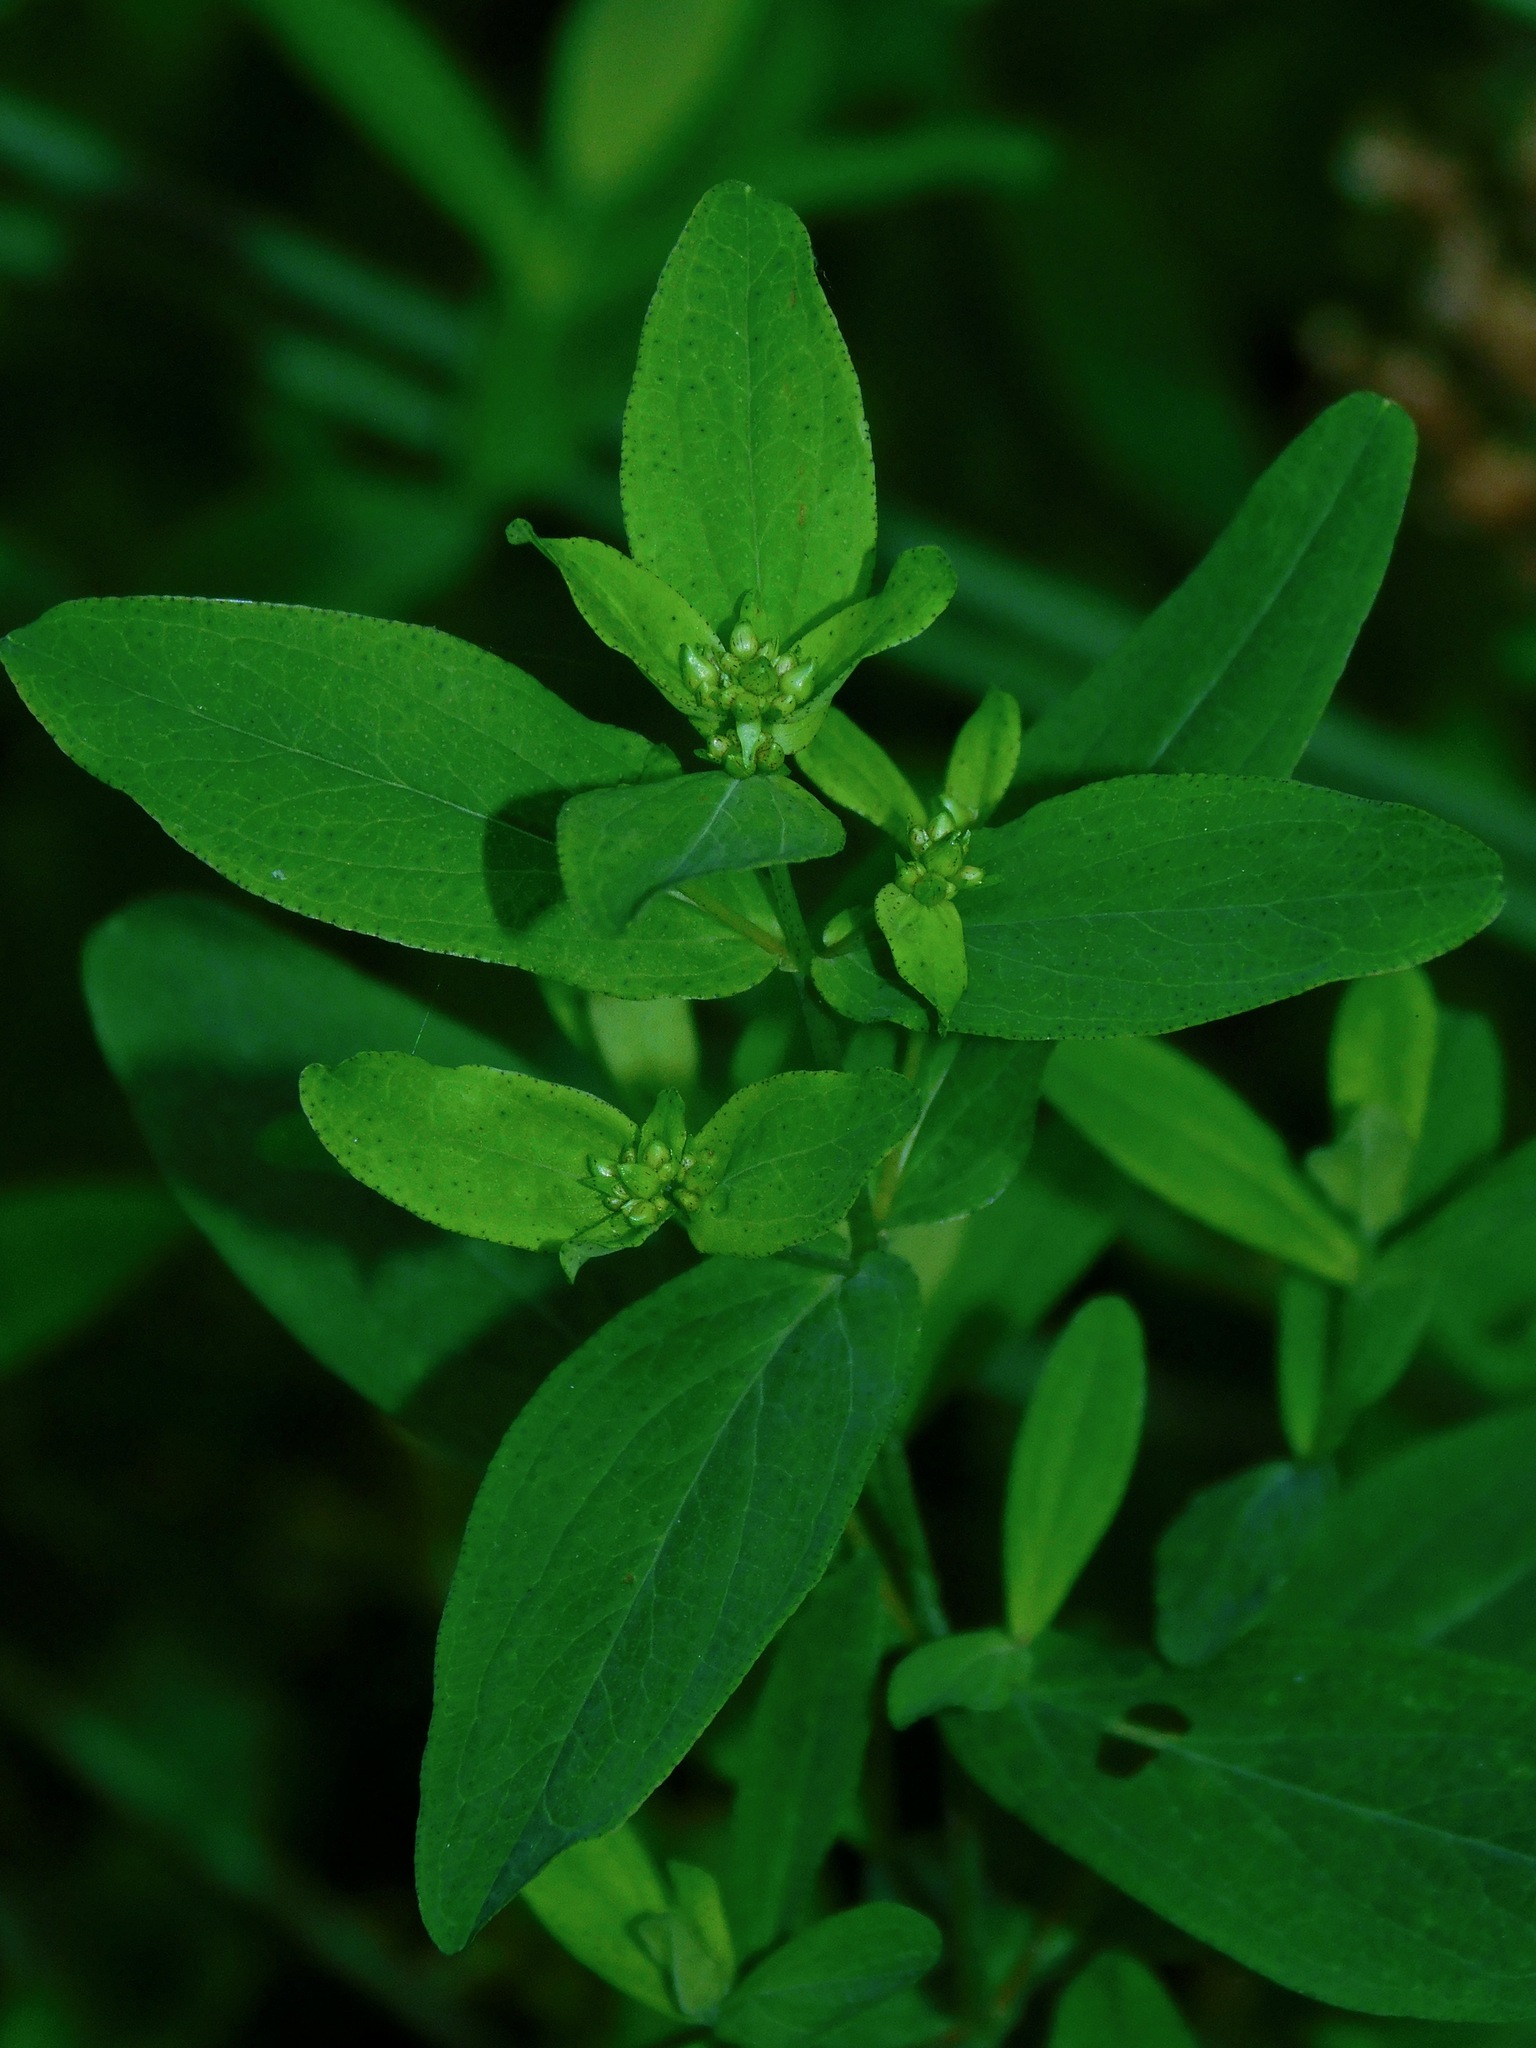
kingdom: Plantae
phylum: Tracheophyta
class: Magnoliopsida
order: Malpighiales
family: Hypericaceae
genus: Hypericum
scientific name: Hypericum punctatum
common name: Spotted st. john's-wort
